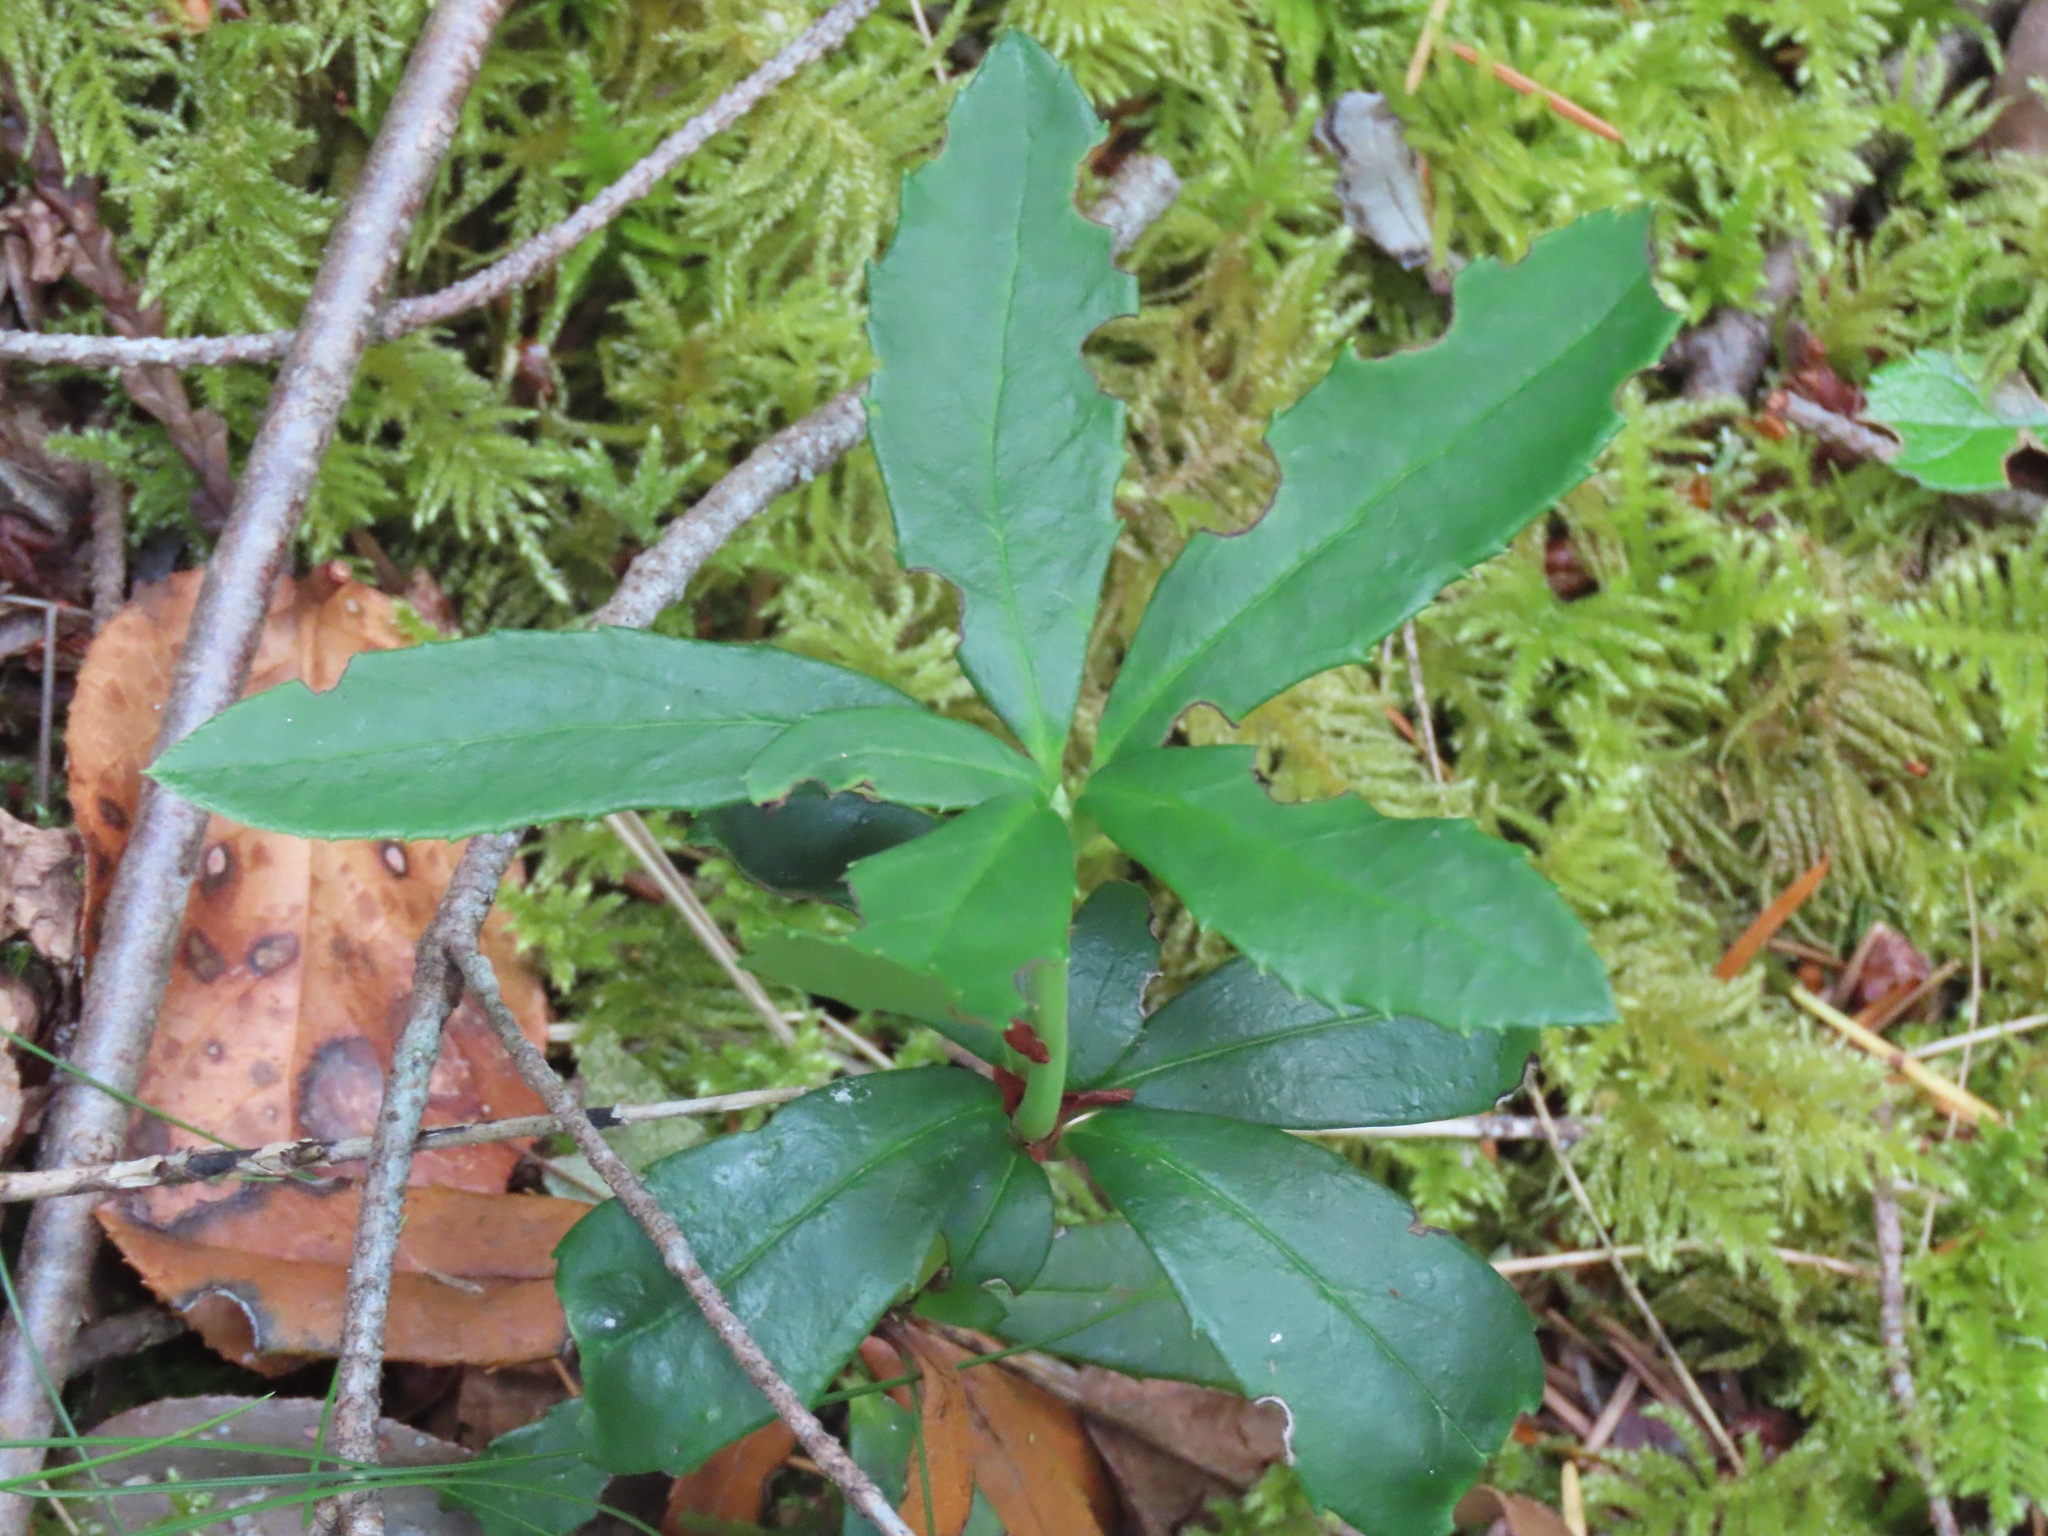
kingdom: Plantae
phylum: Tracheophyta
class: Magnoliopsida
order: Ericales
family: Ericaceae
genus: Chimaphila
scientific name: Chimaphila umbellata
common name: Pipsissewa
